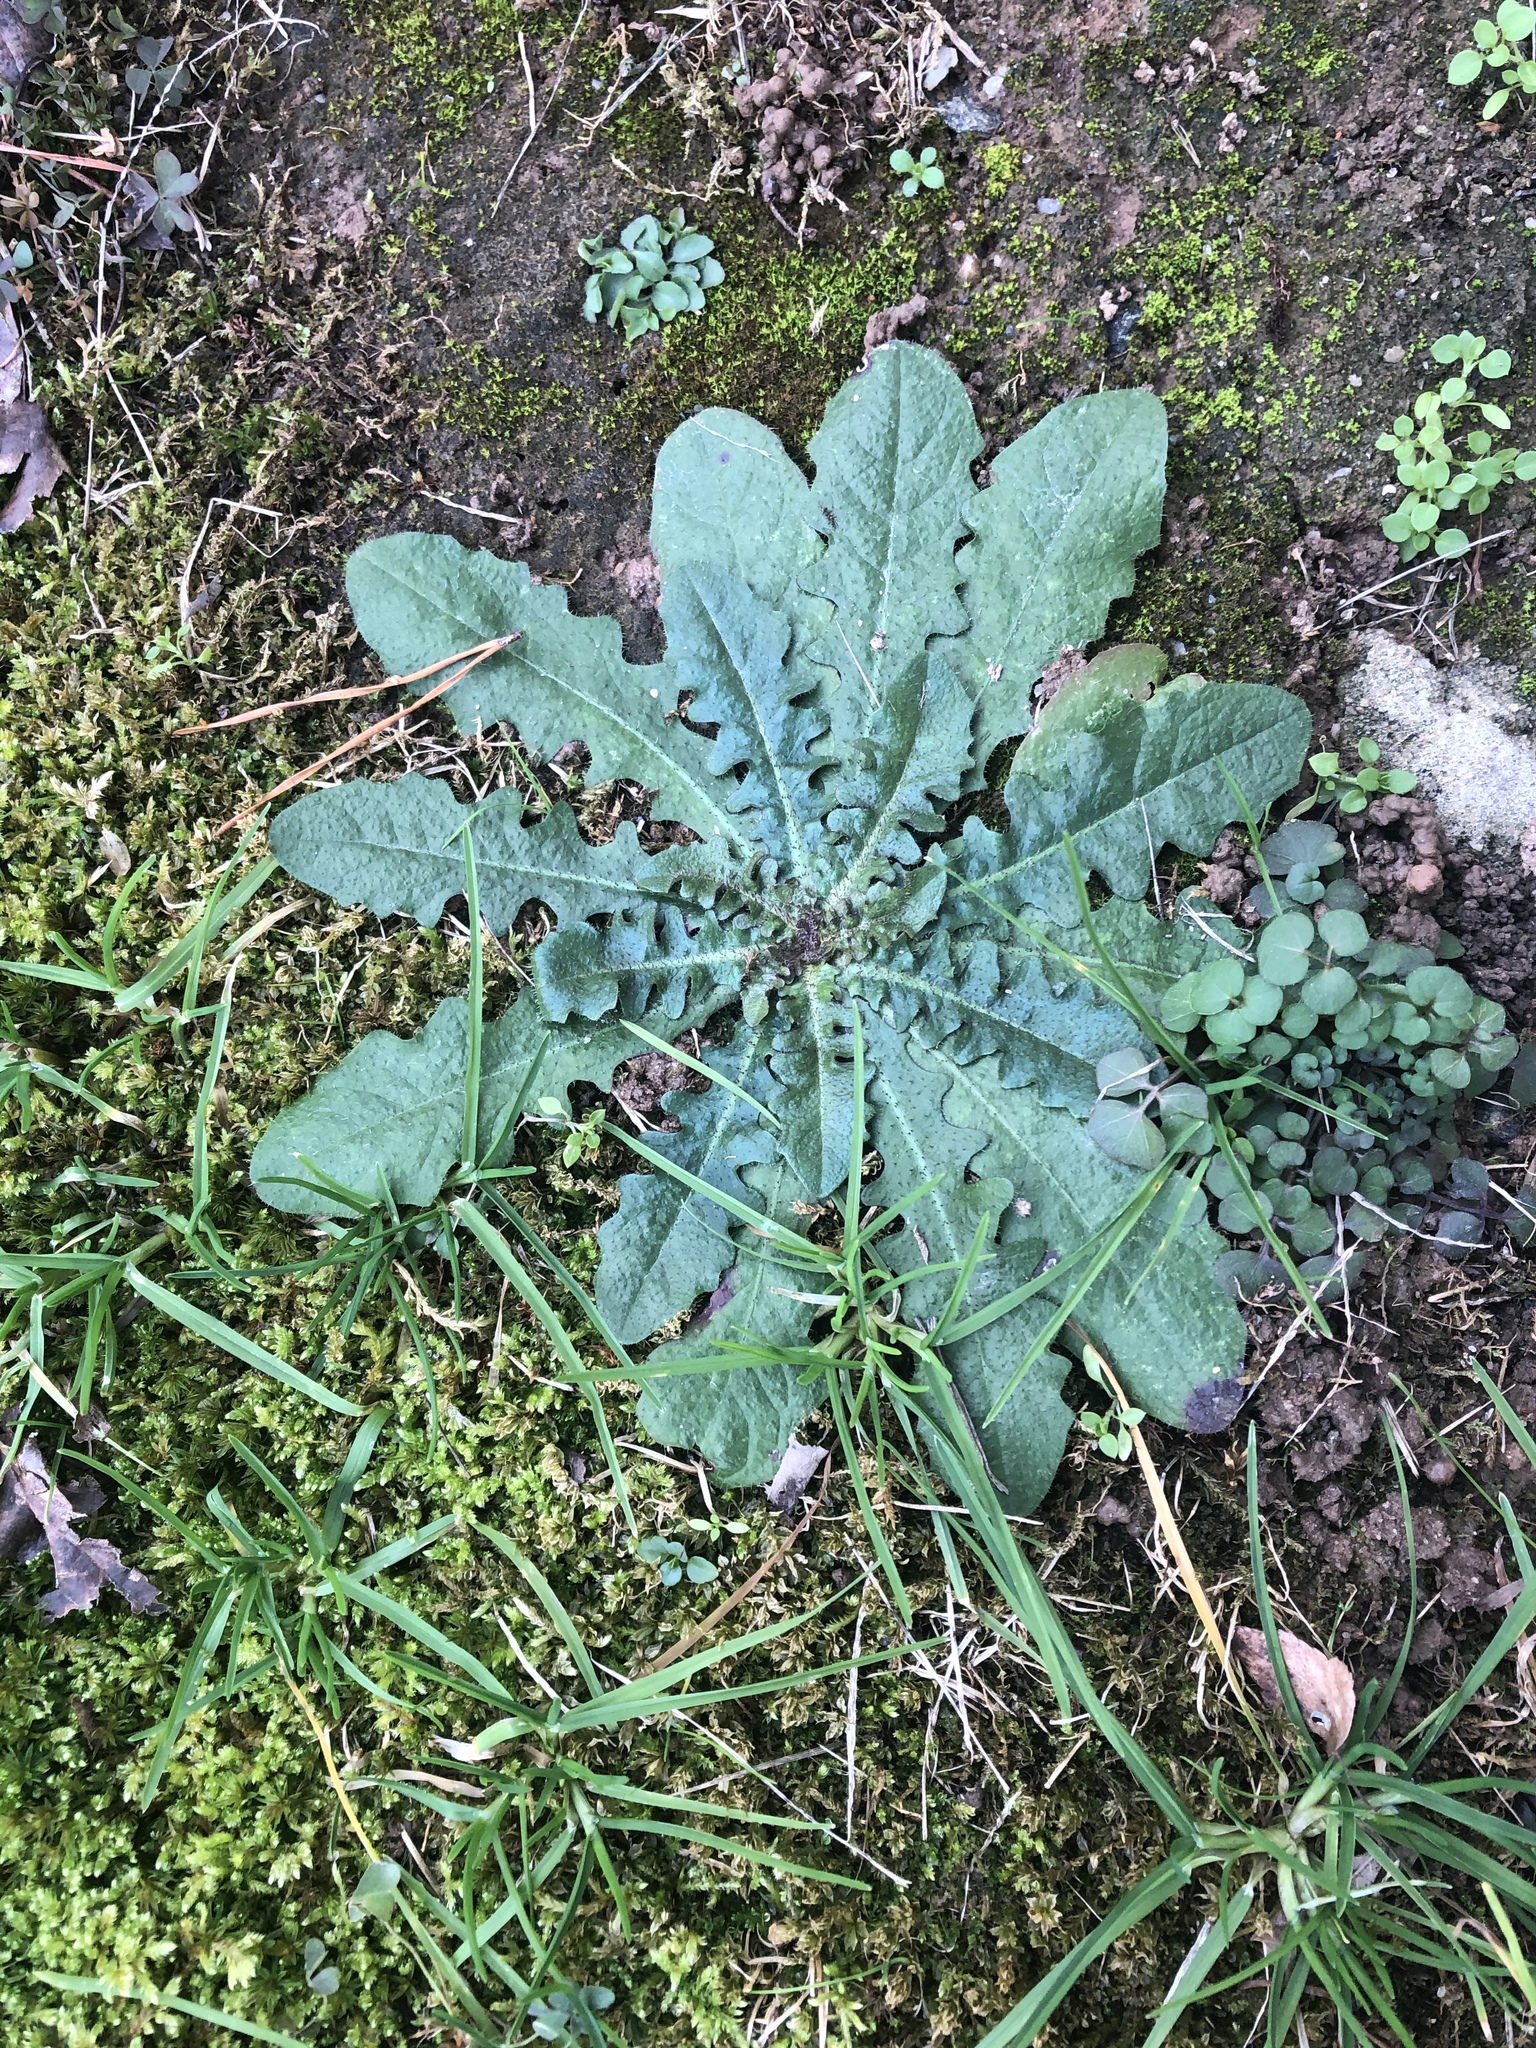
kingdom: Plantae
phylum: Tracheophyta
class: Magnoliopsida
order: Asterales
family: Asteraceae
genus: Hypochaeris
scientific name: Hypochaeris radicata
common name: Flatweed
